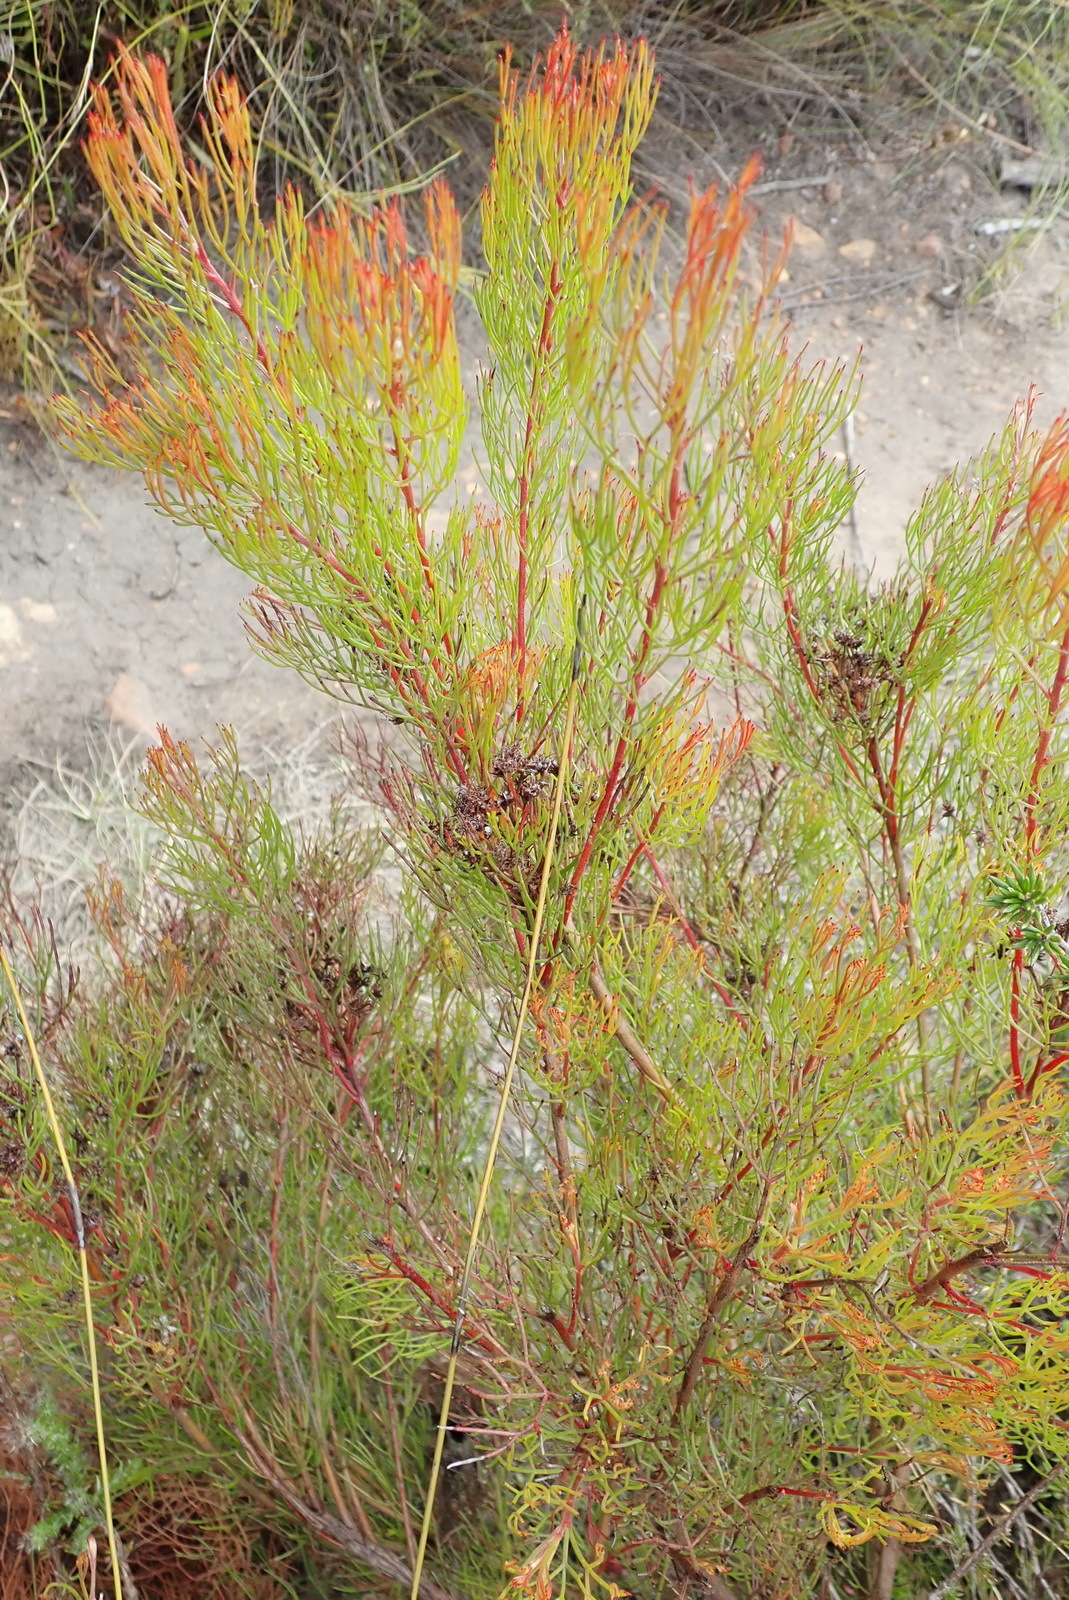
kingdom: Plantae
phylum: Tracheophyta
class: Magnoliopsida
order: Proteales
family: Proteaceae
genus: Serruria
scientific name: Serruria fasciflora
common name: Common pin spiderhead
